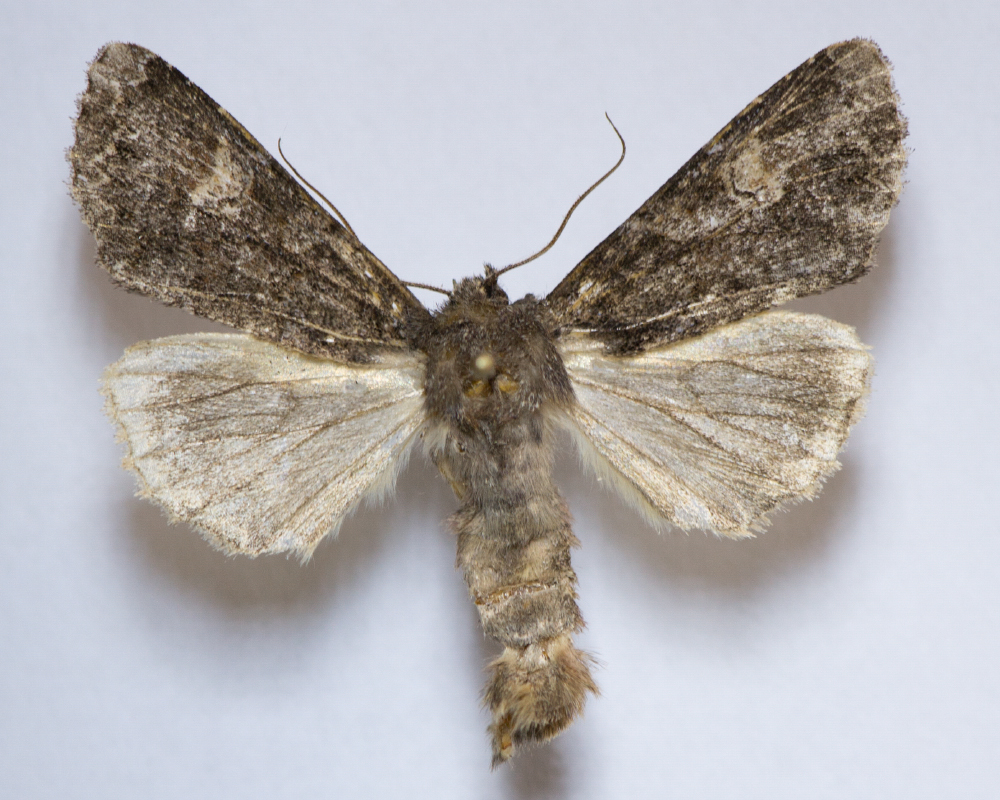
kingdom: Animalia
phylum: Arthropoda
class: Insecta
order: Lepidoptera
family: Noctuidae
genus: Apamea
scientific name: Apamea rubrirena
